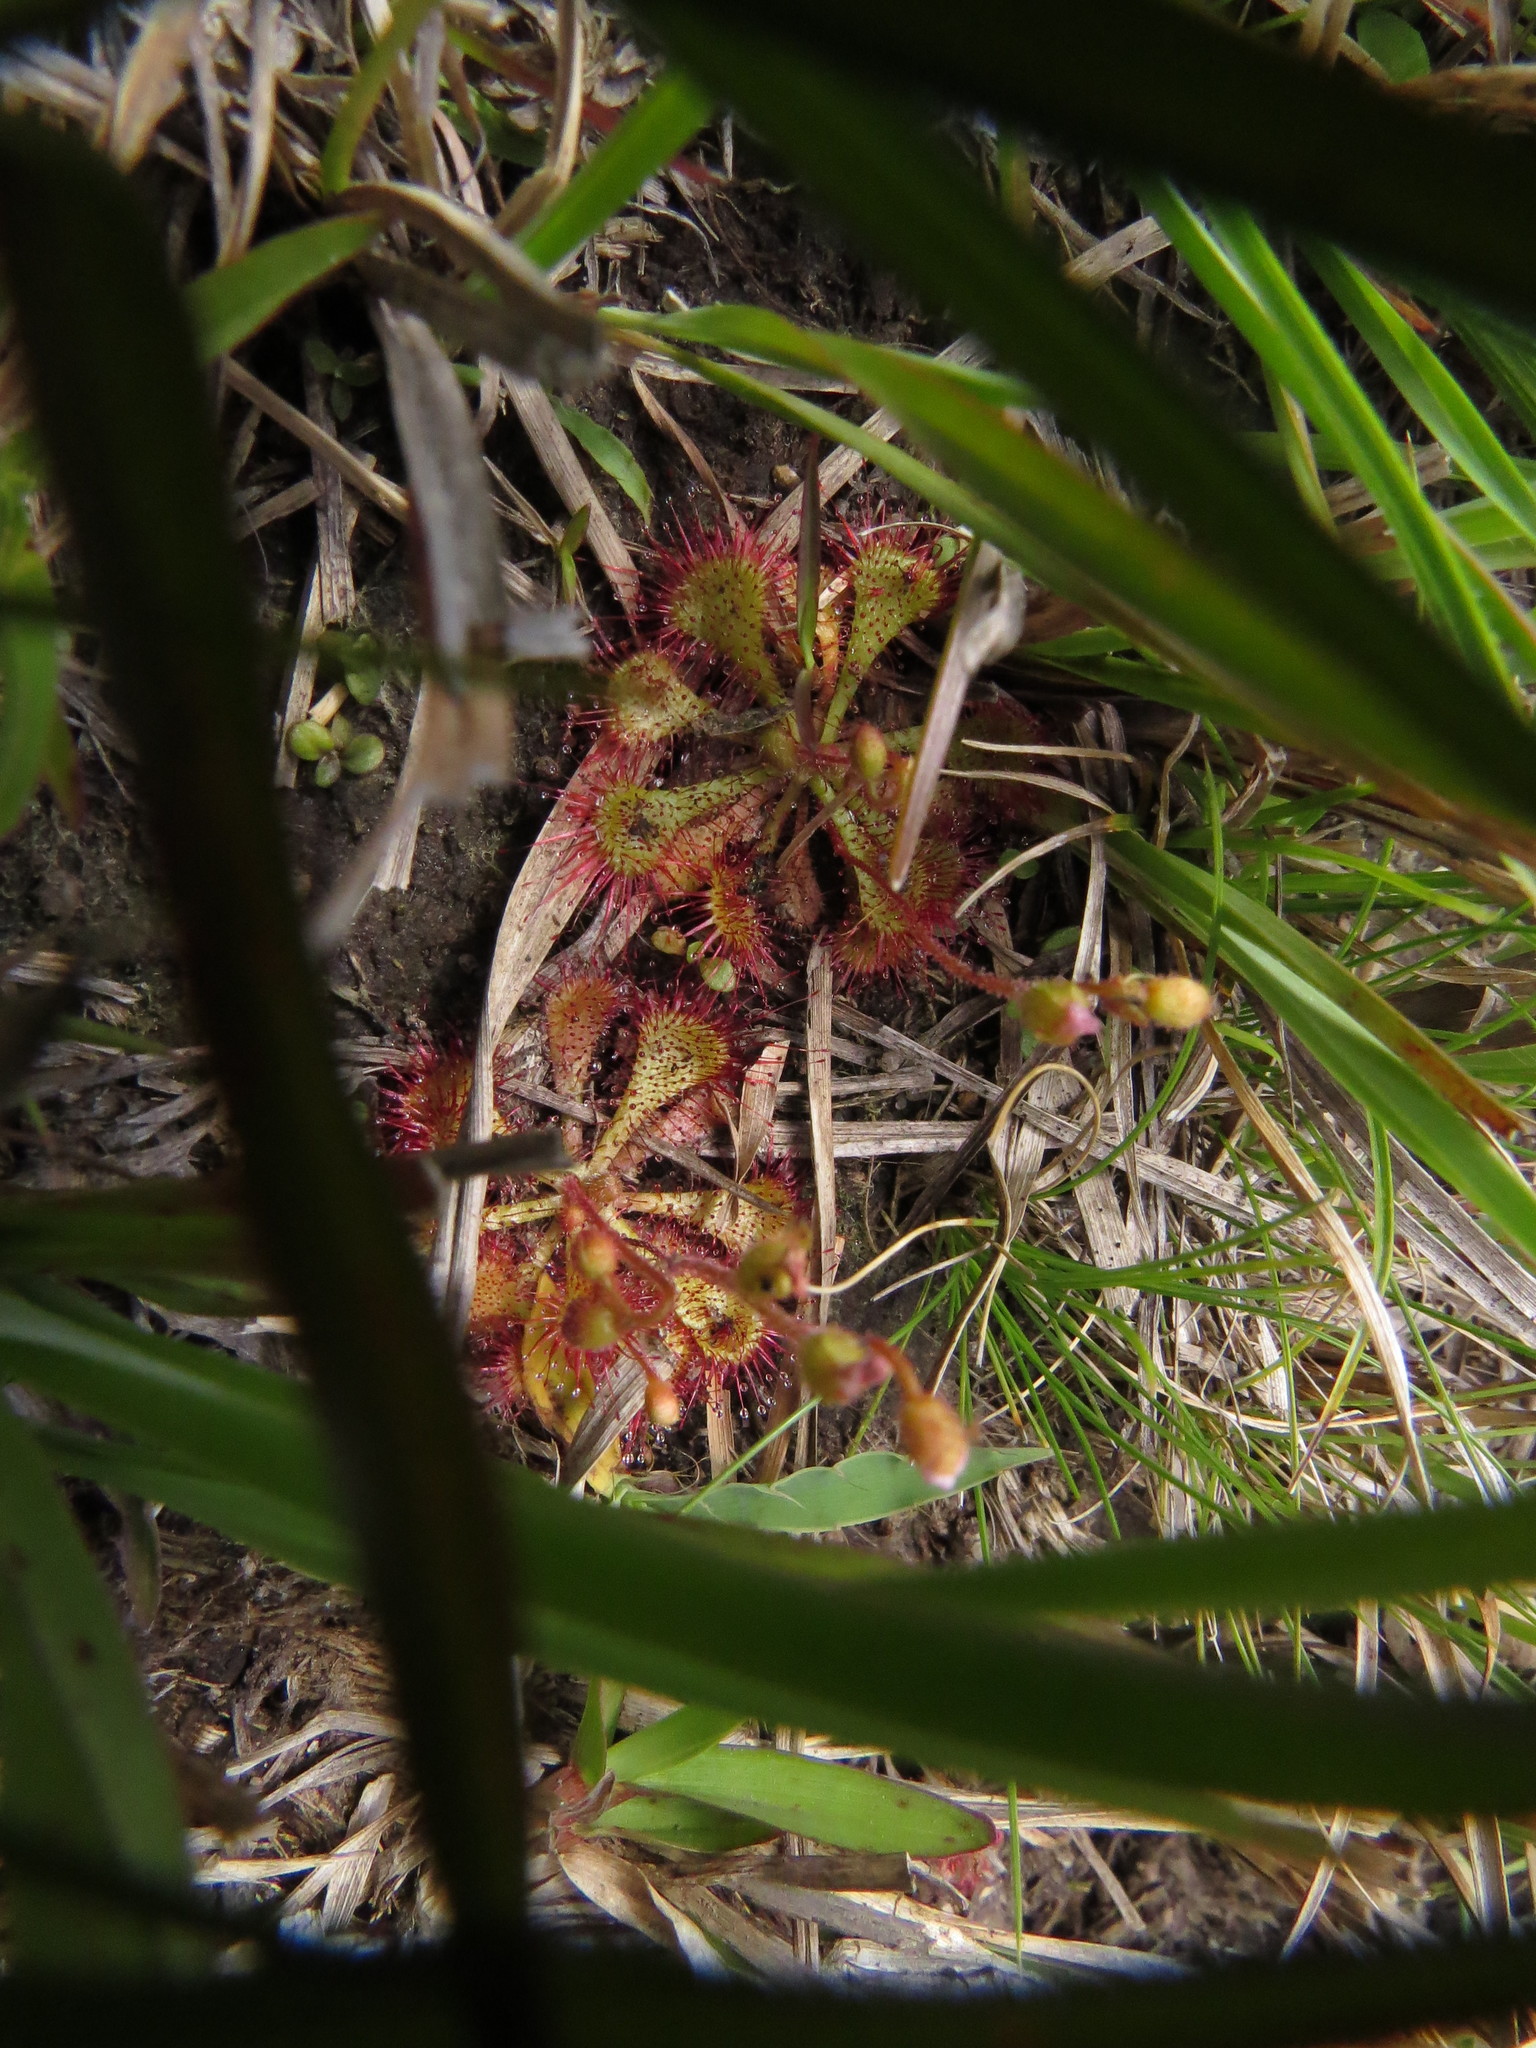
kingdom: Plantae
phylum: Tracheophyta
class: Magnoliopsida
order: Caryophyllales
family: Droseraceae
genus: Drosera
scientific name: Drosera brevifolia
